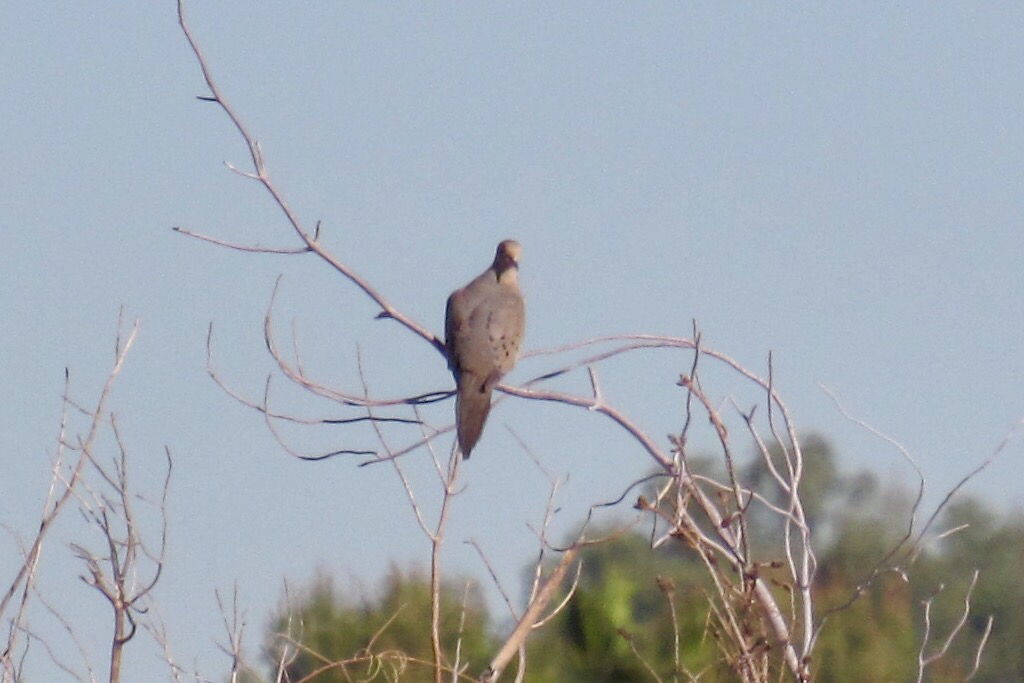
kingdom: Animalia
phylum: Chordata
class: Aves
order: Columbiformes
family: Columbidae
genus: Zenaida
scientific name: Zenaida macroura
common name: Mourning dove
